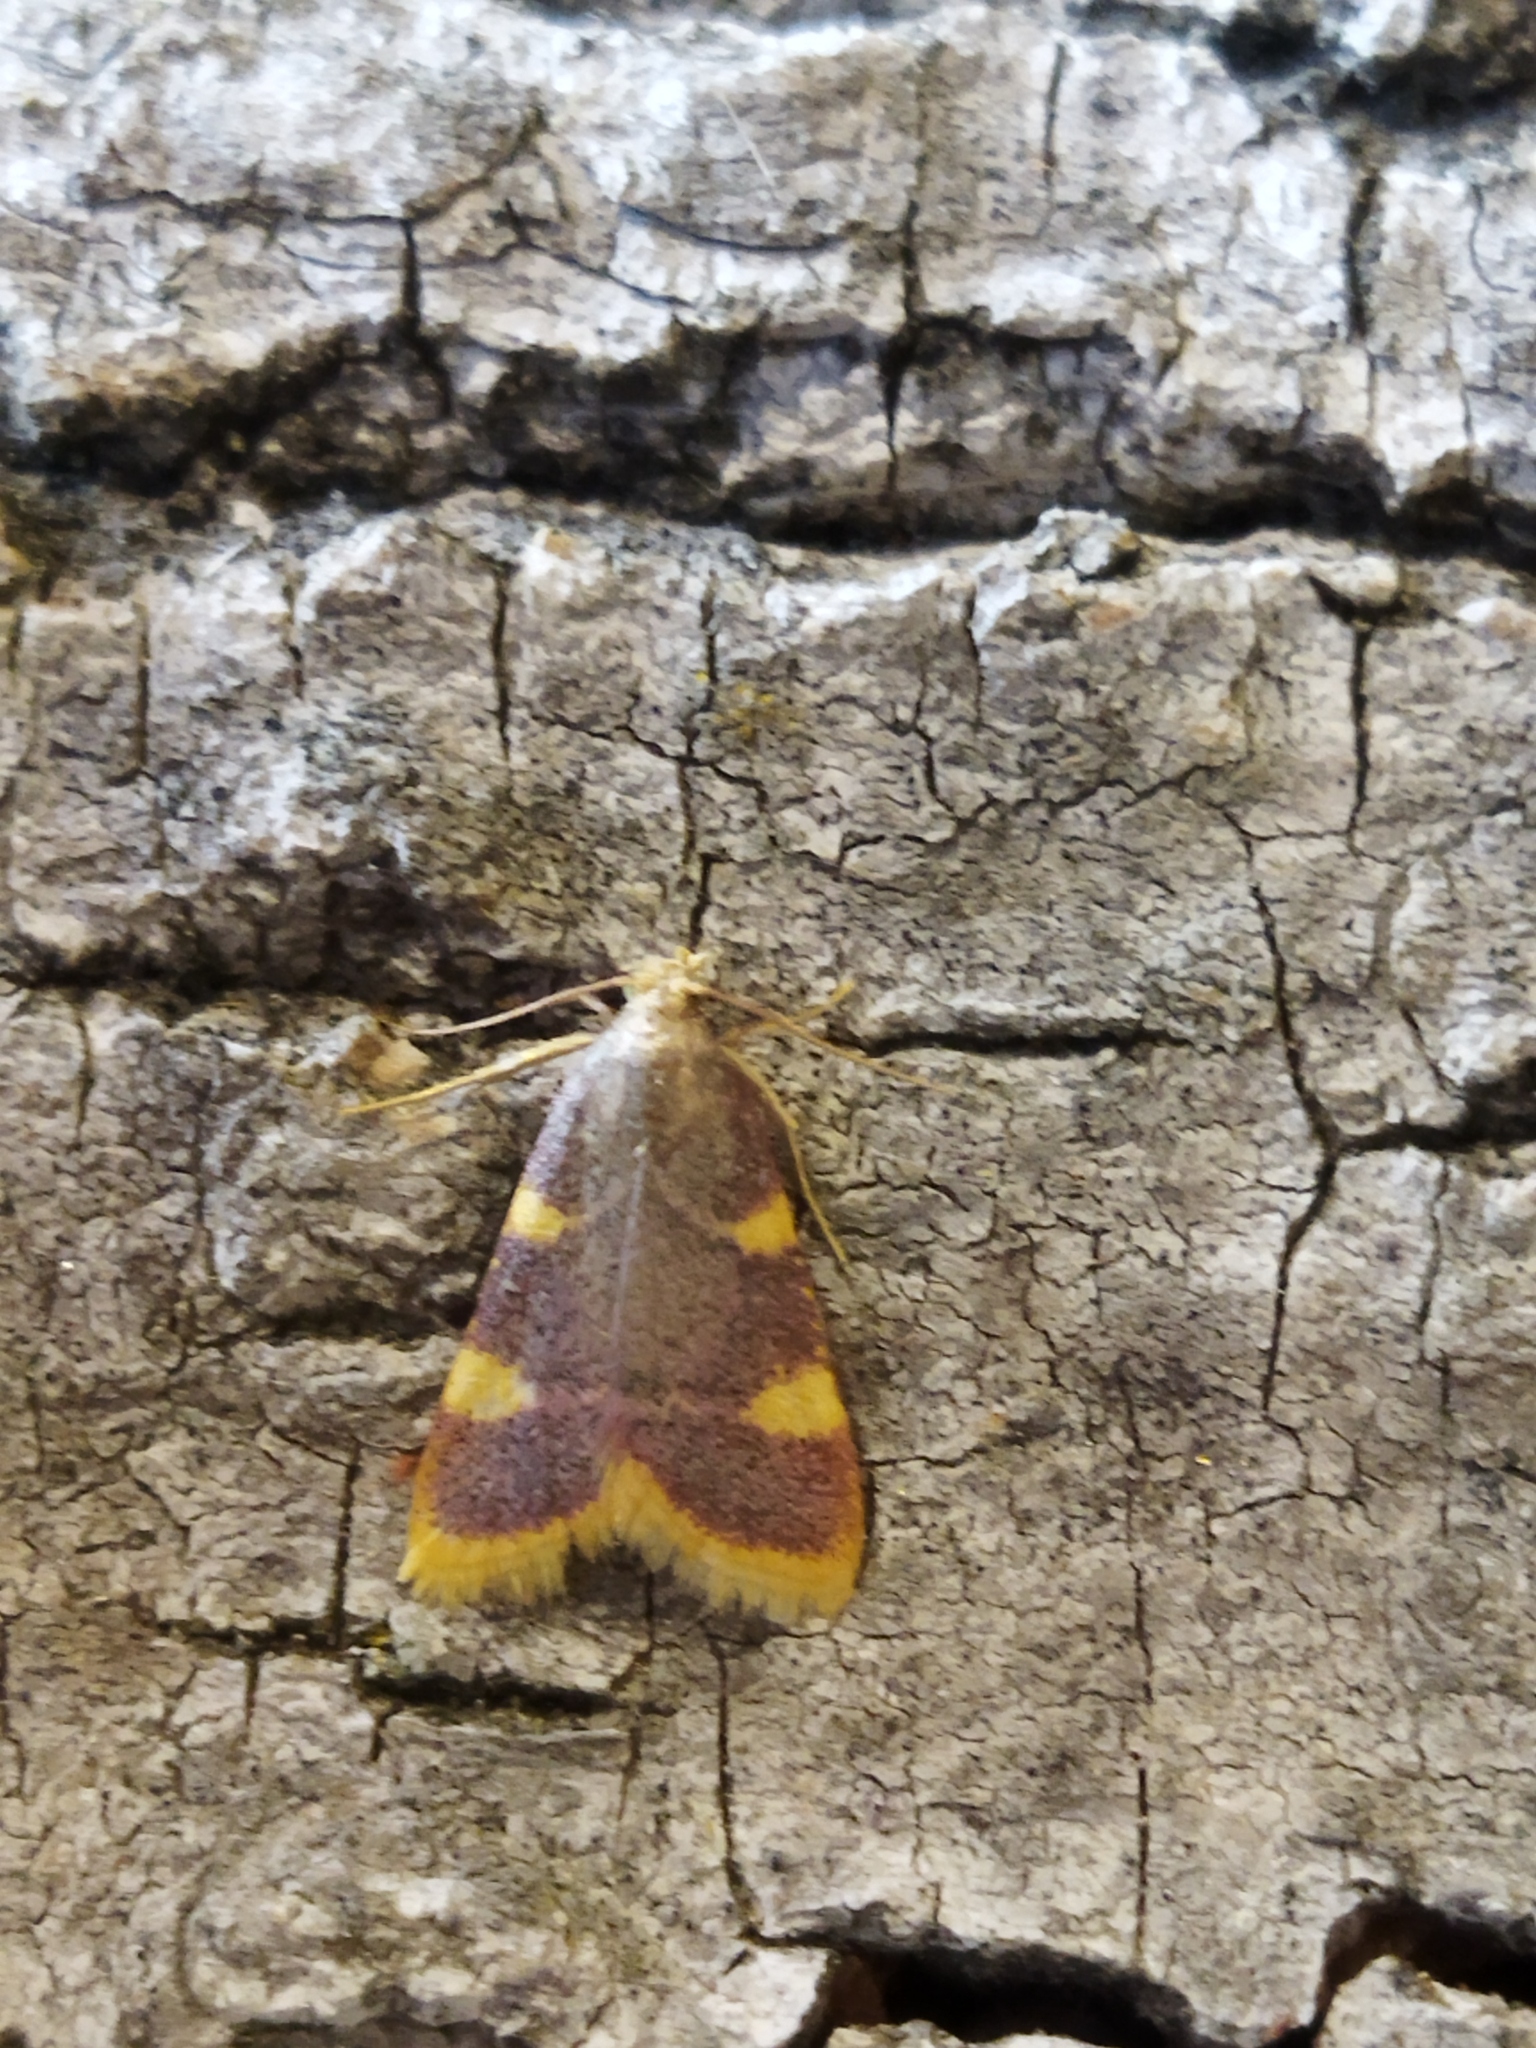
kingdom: Animalia
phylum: Arthropoda
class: Insecta
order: Lepidoptera
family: Pyralidae
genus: Hypsopygia
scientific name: Hypsopygia costalis
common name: Gold triangle
